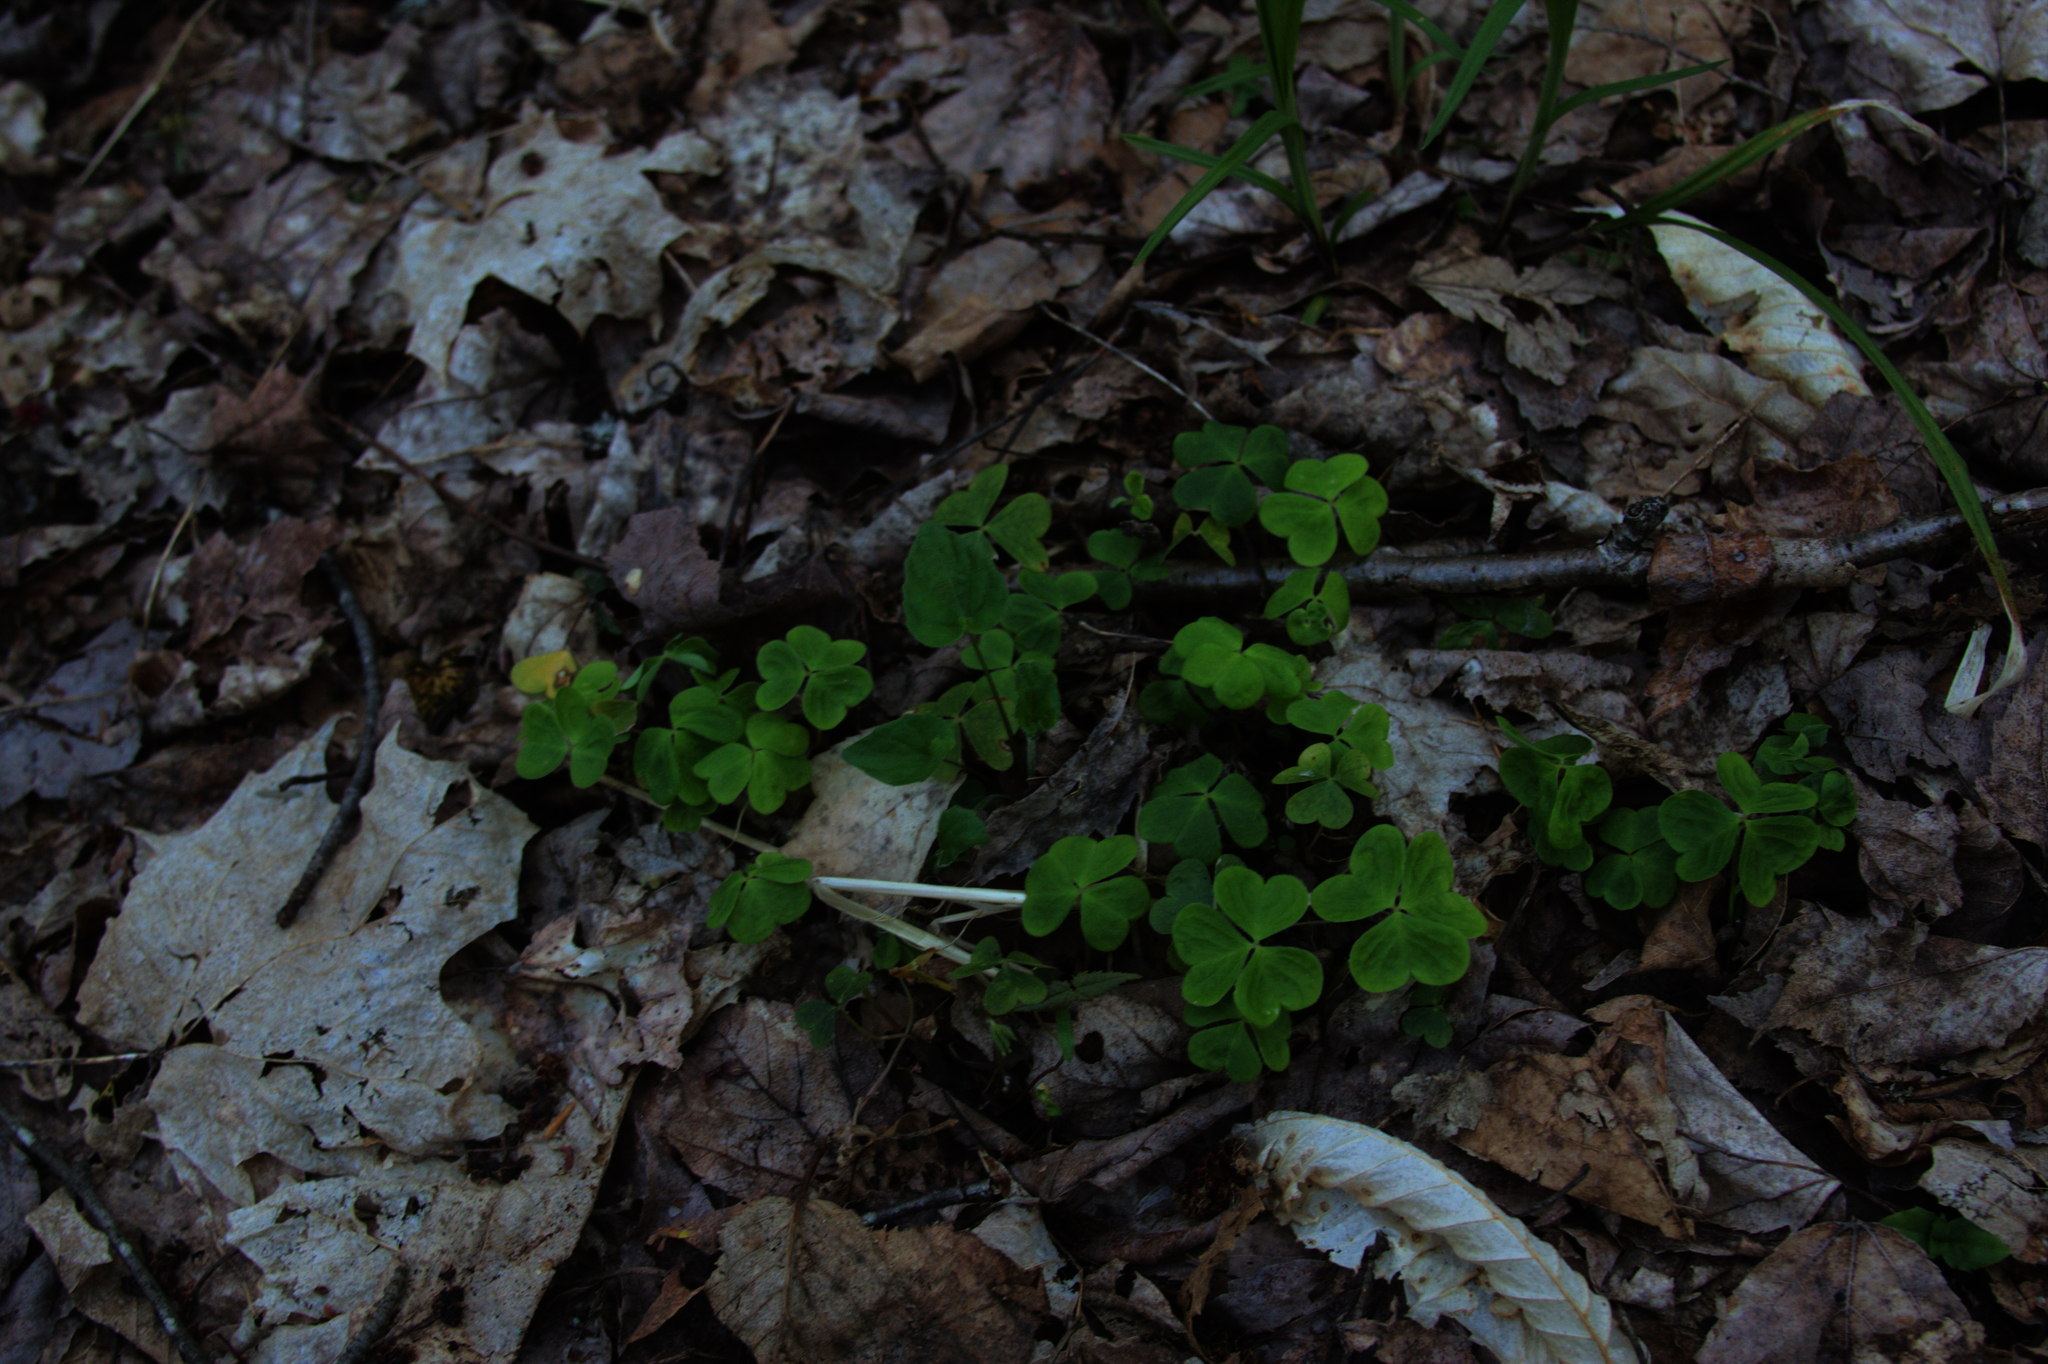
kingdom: Plantae
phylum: Tracheophyta
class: Magnoliopsida
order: Oxalidales
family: Oxalidaceae
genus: Oxalis
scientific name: Oxalis montana
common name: American wood-sorrel
